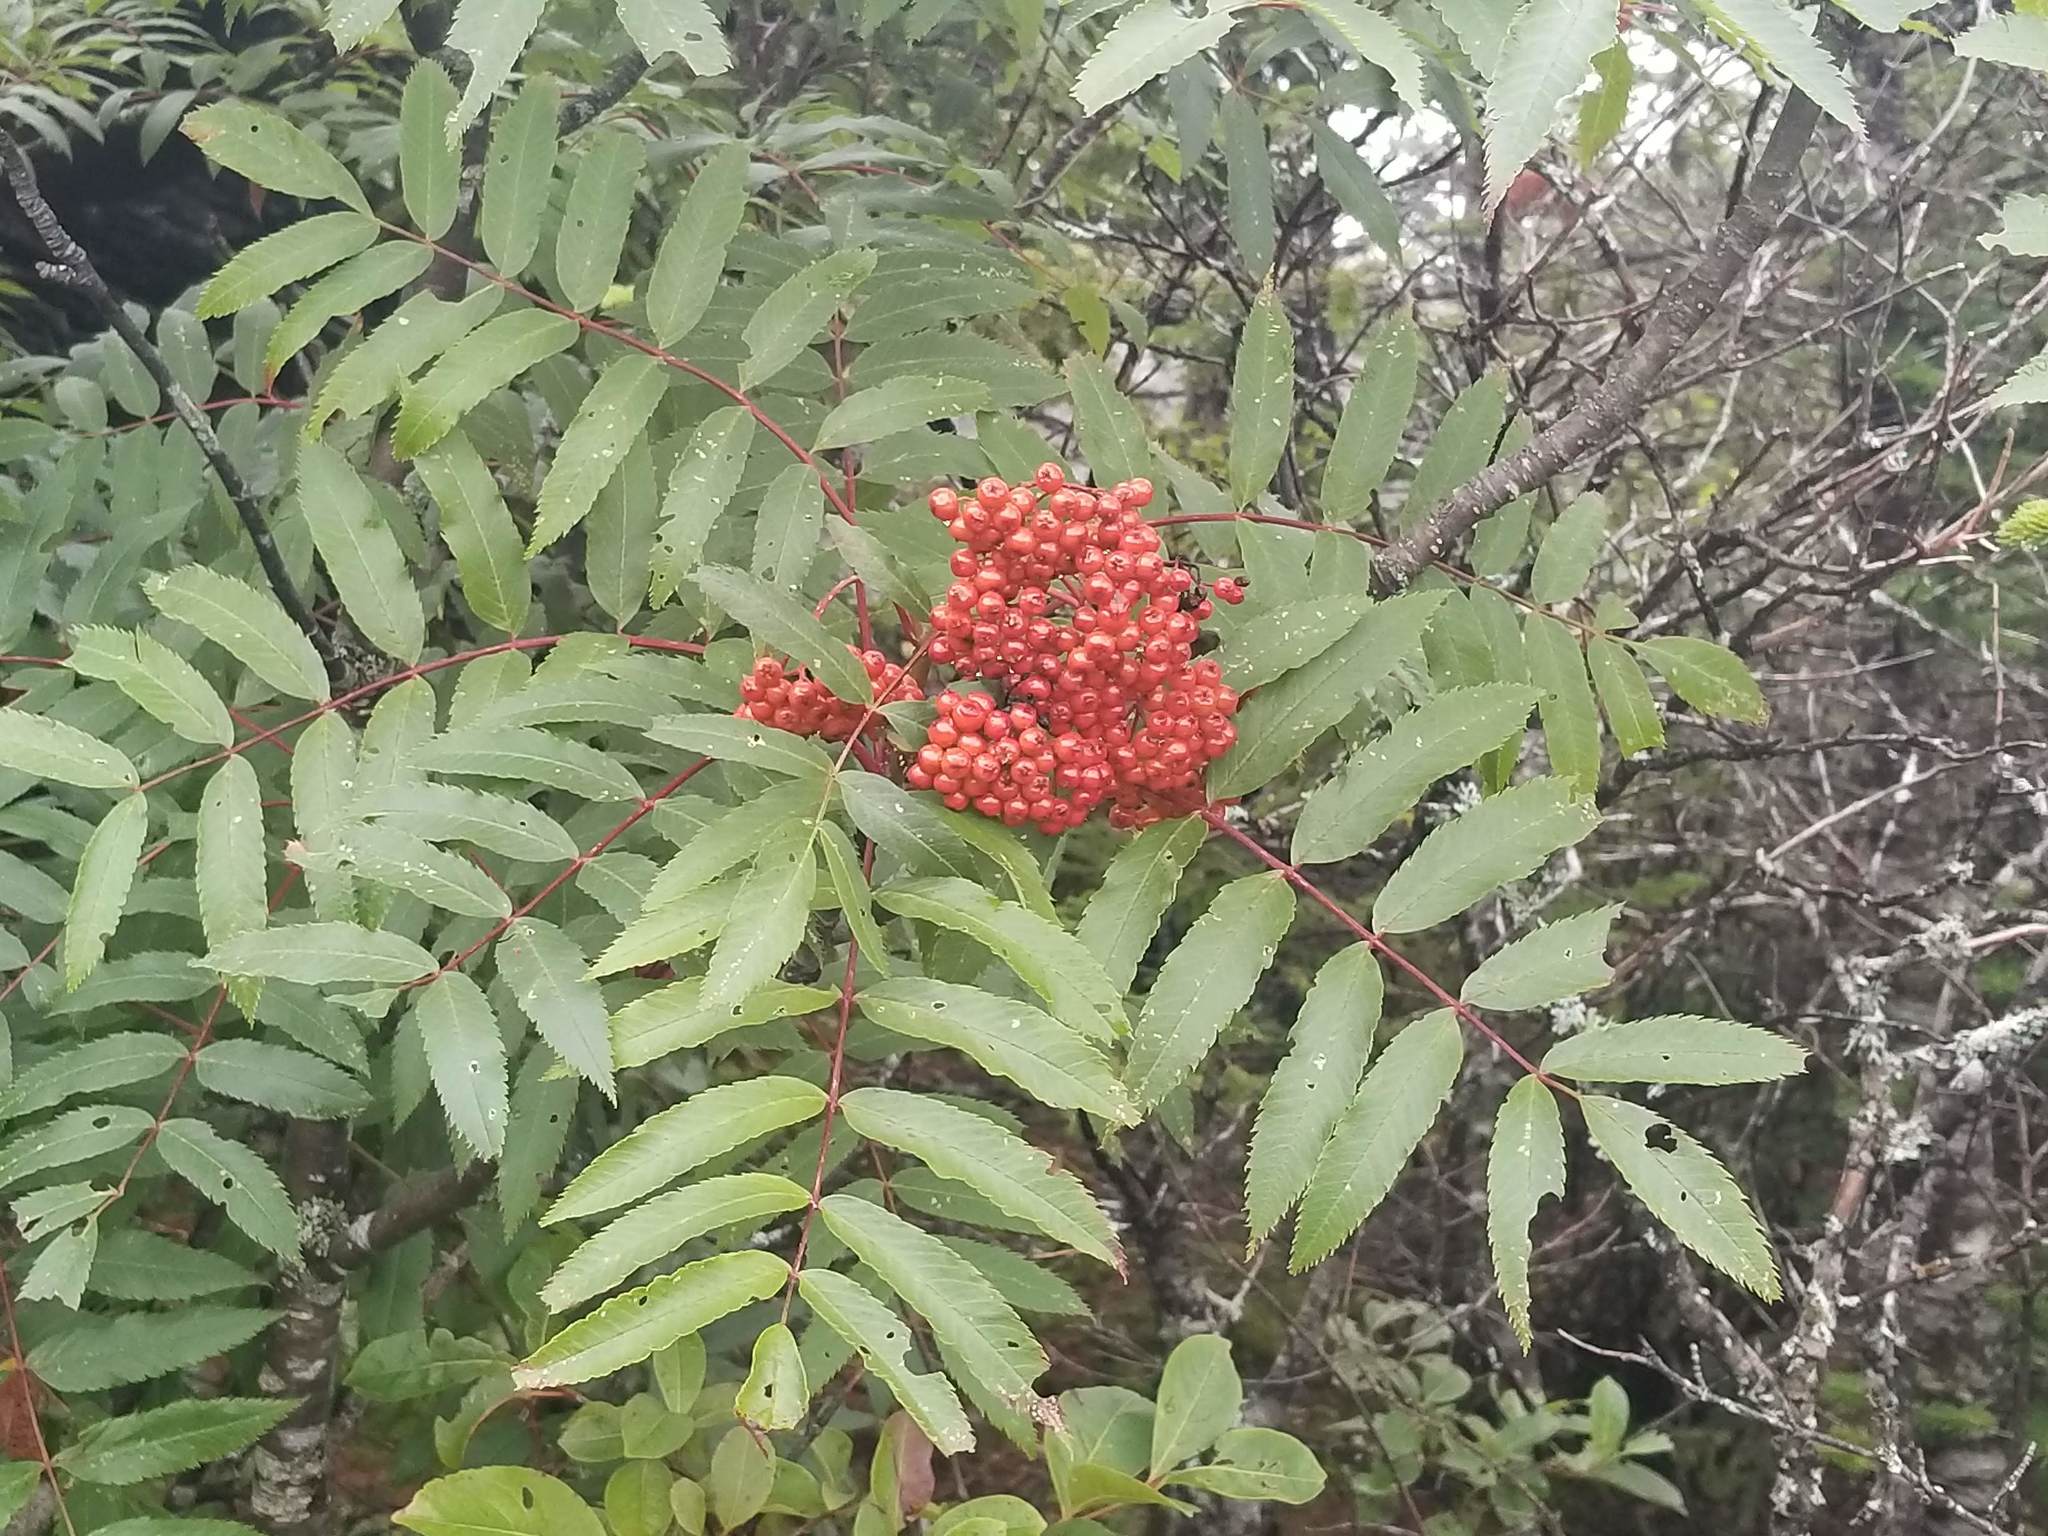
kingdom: Plantae
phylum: Tracheophyta
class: Magnoliopsida
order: Rosales
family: Rosaceae
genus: Sorbus
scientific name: Sorbus americana
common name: American mountain-ash
